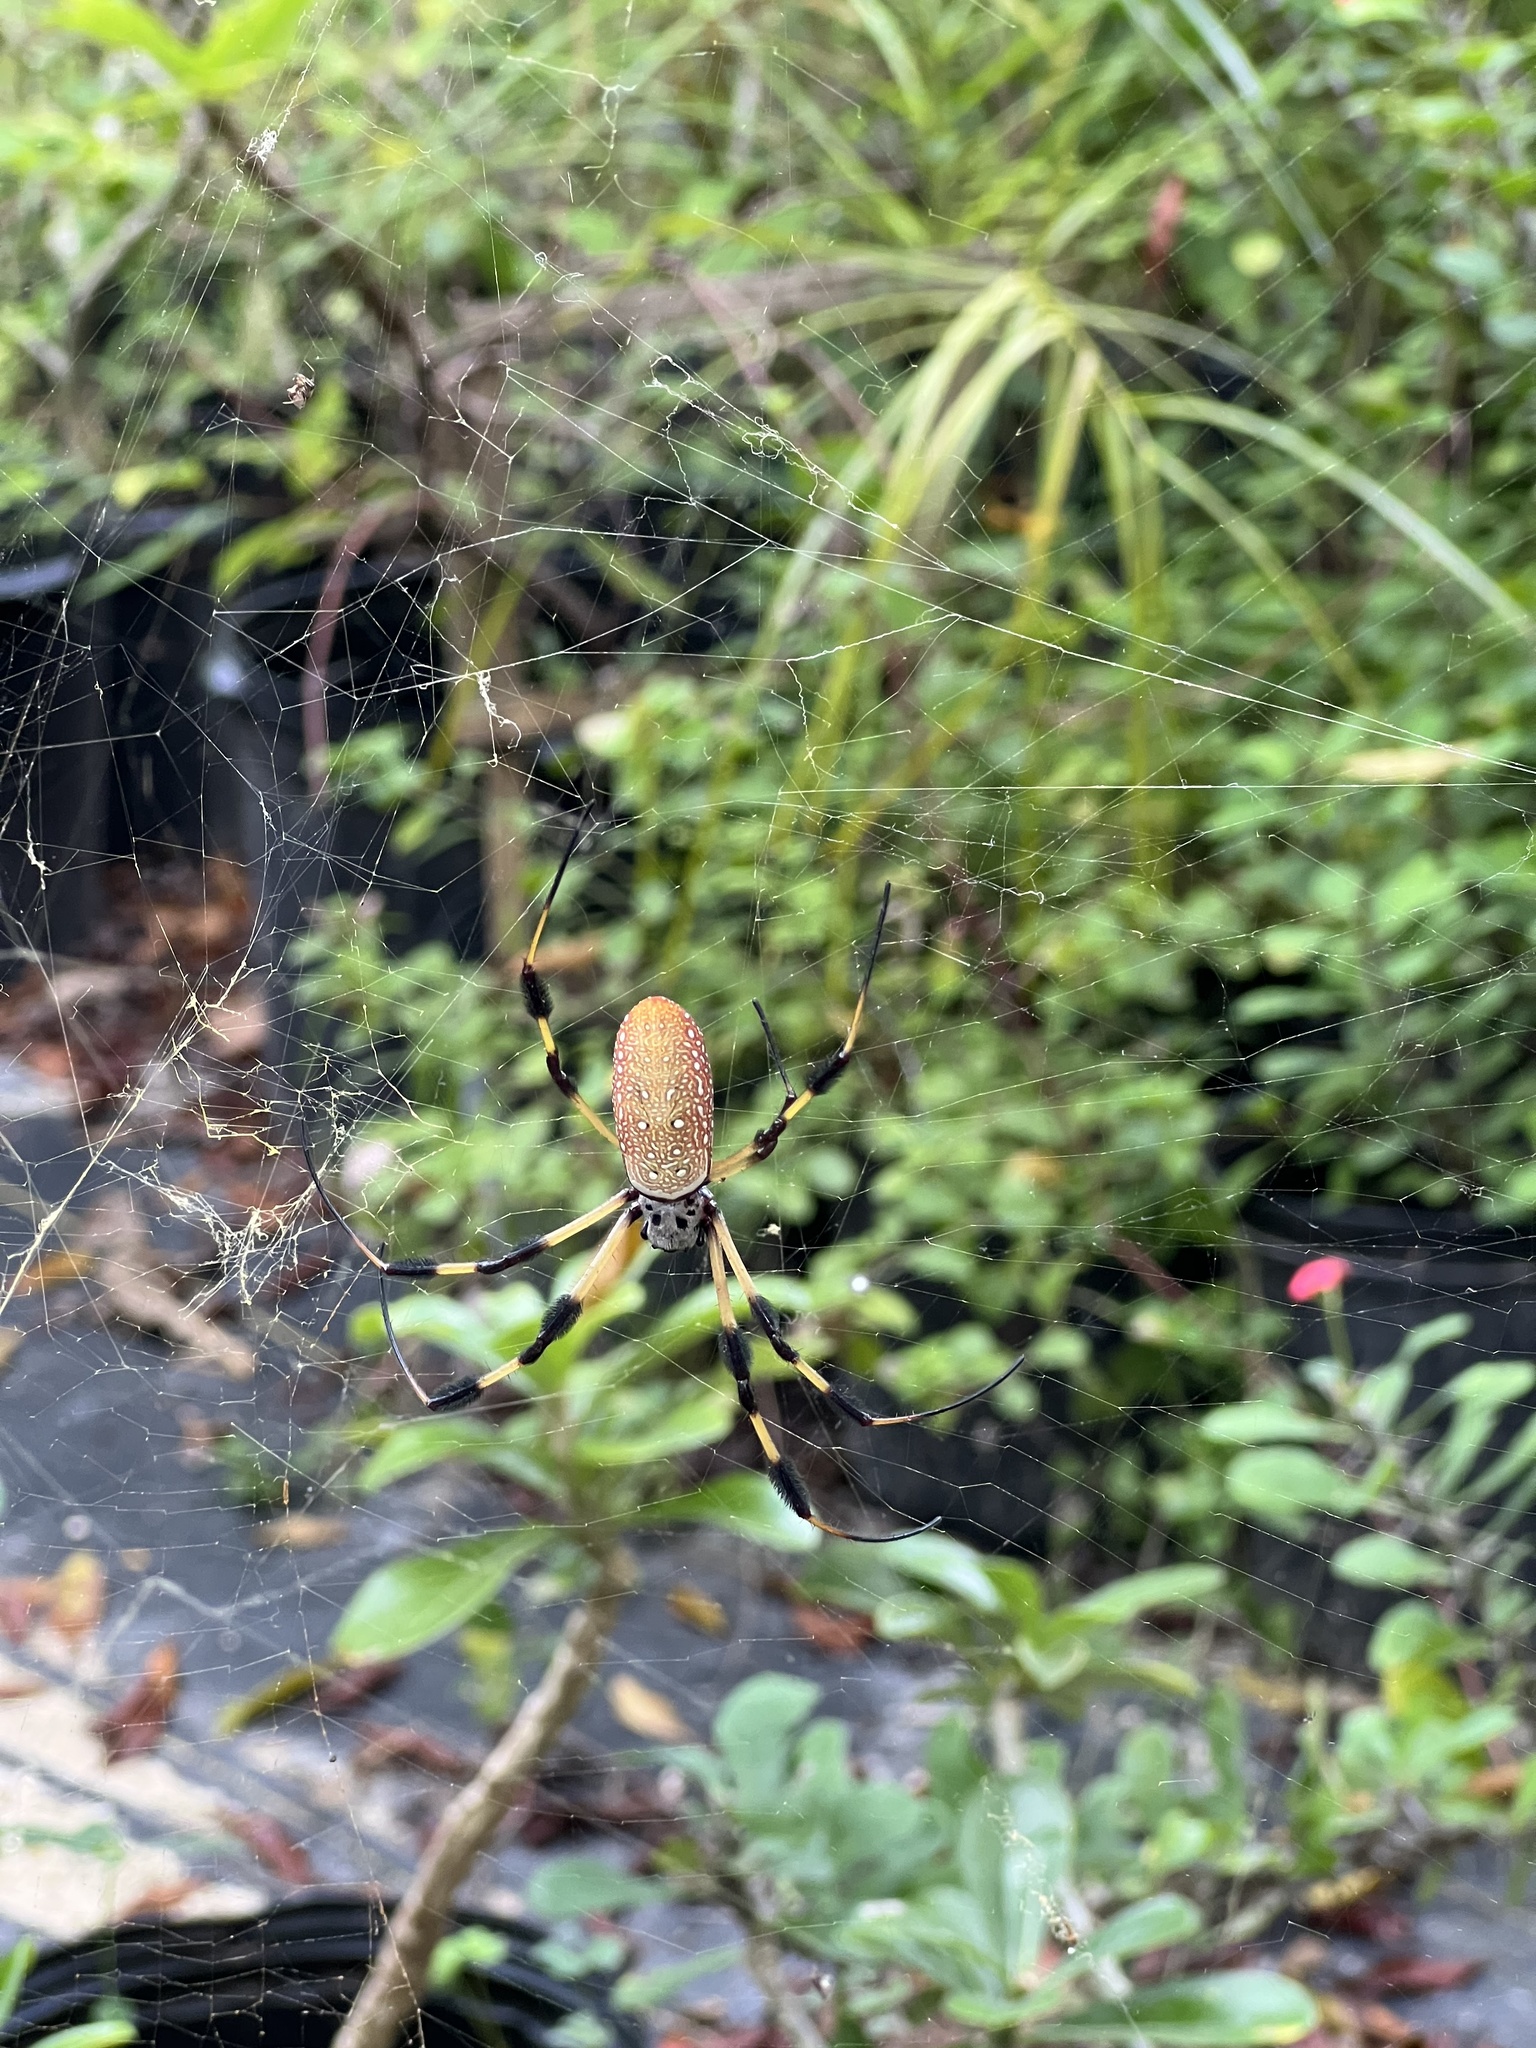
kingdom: Animalia
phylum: Arthropoda
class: Arachnida
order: Araneae
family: Araneidae
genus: Trichonephila
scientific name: Trichonephila clavipes
